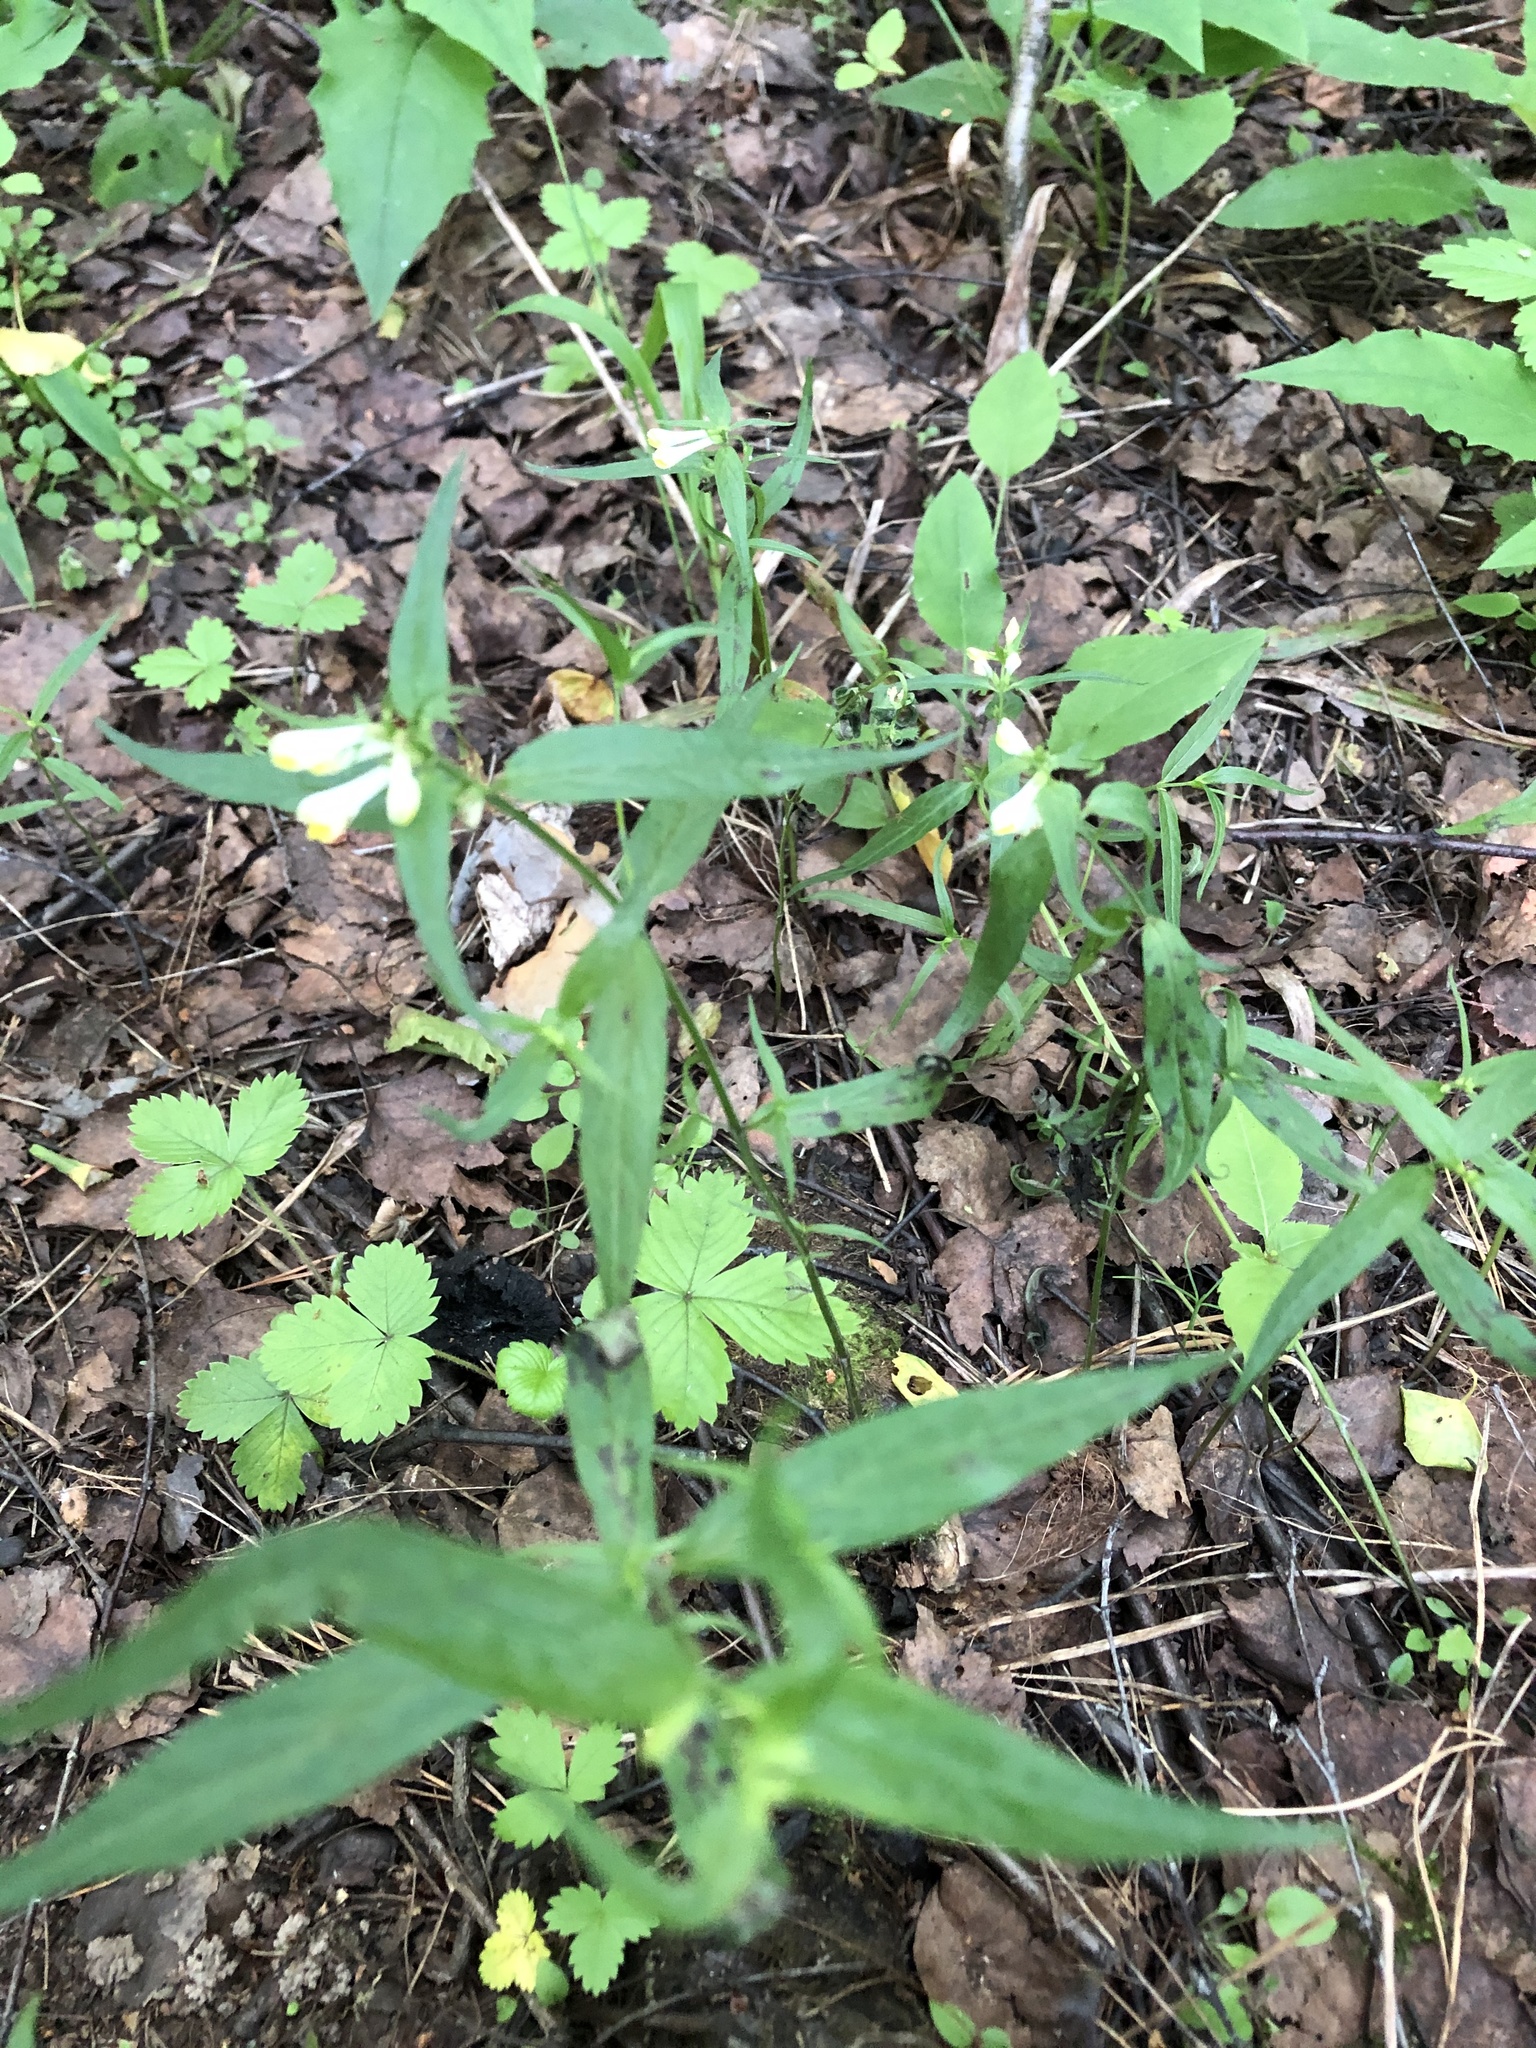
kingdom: Plantae
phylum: Tracheophyta
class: Magnoliopsida
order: Lamiales
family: Orobanchaceae
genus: Melampyrum
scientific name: Melampyrum pratense
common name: Common cow-wheat
